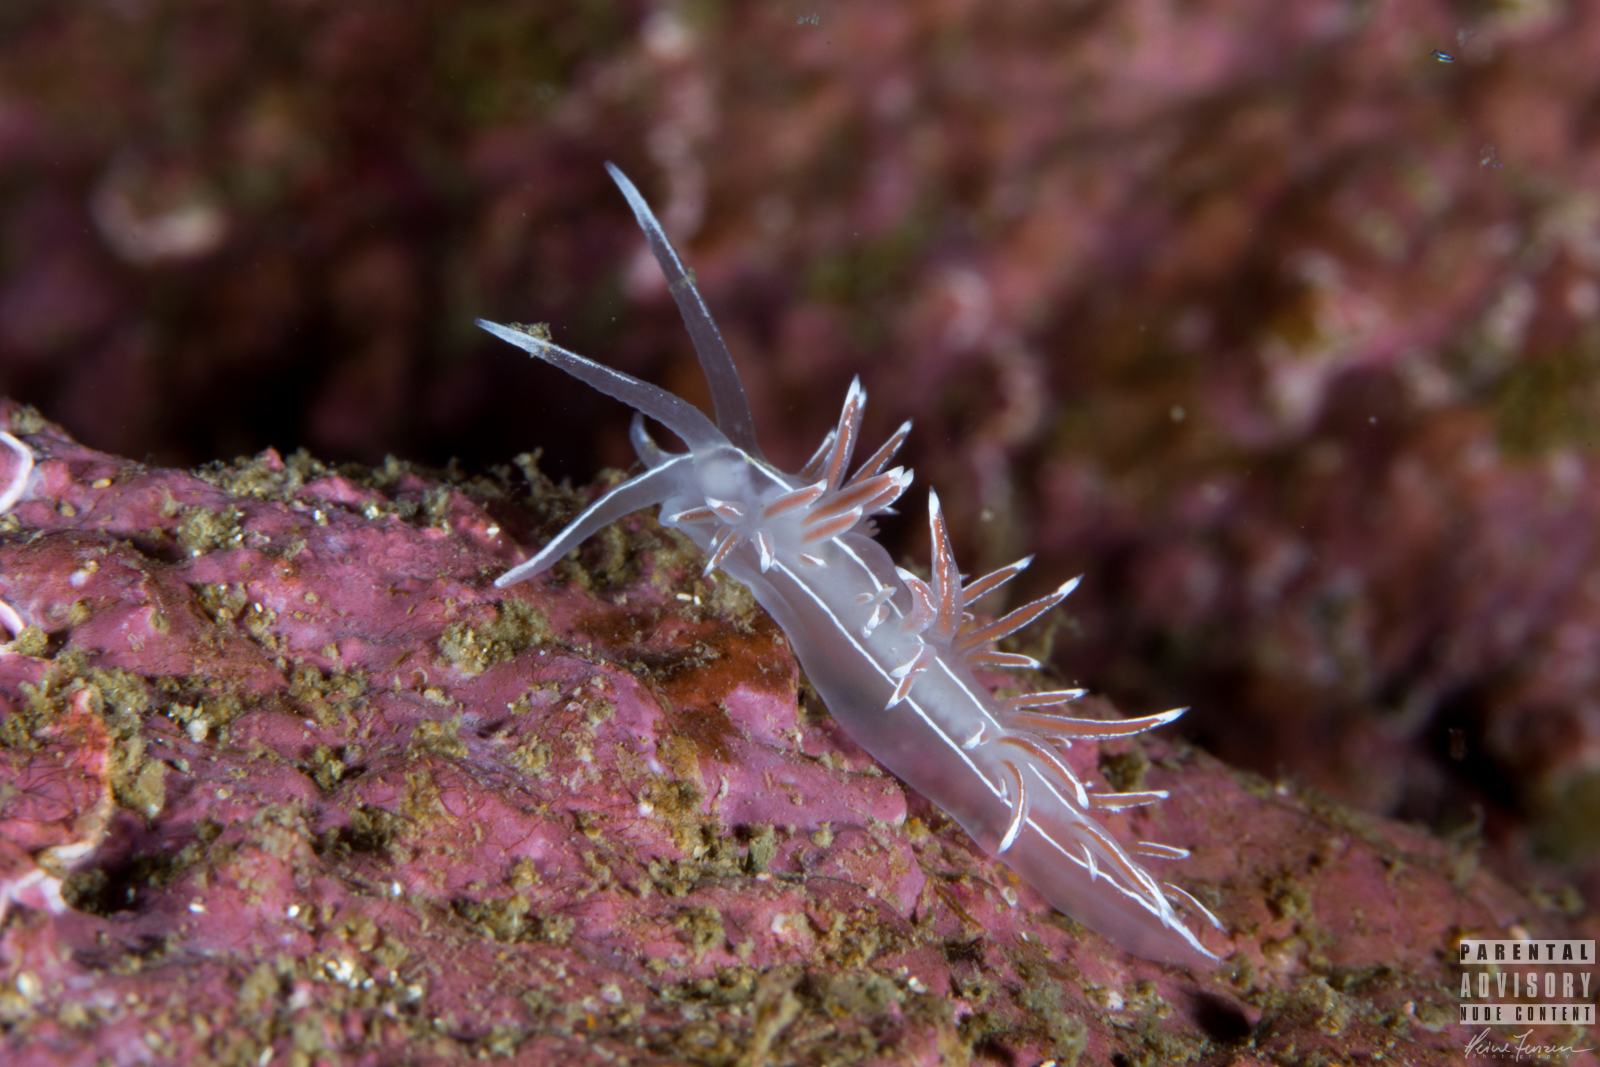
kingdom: Animalia
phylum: Mollusca
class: Gastropoda
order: Nudibranchia
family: Coryphellidae
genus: Coryphella
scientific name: Coryphella lineata
